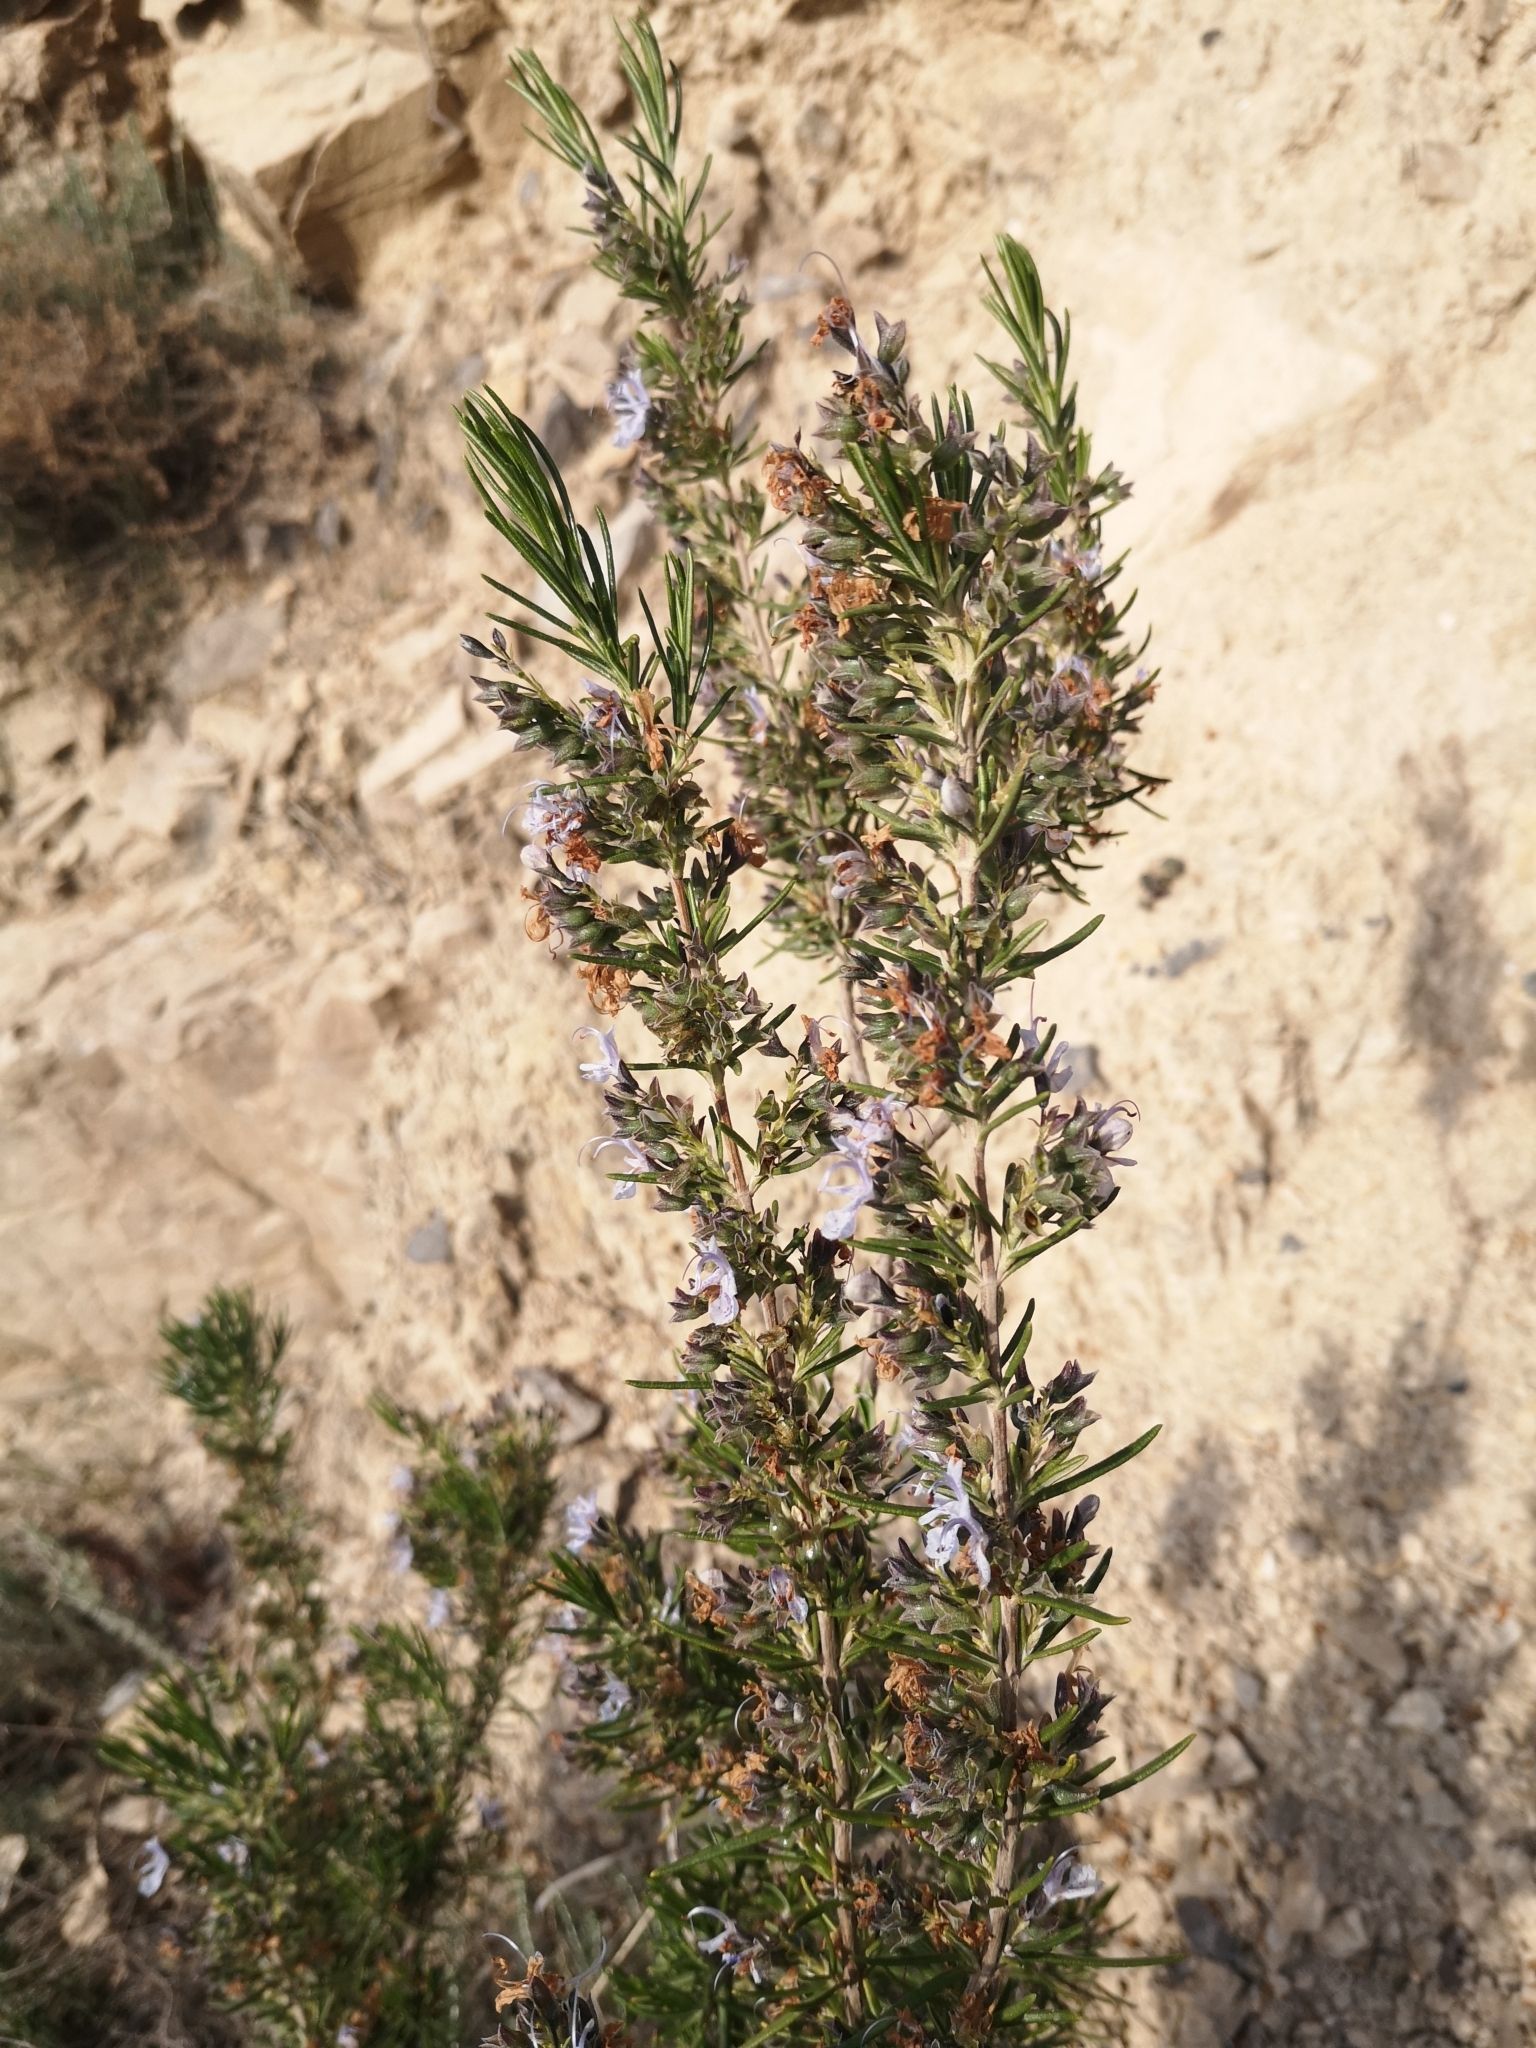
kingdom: Plantae
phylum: Tracheophyta
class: Magnoliopsida
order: Lamiales
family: Lamiaceae
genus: Salvia
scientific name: Salvia rosmarinus
